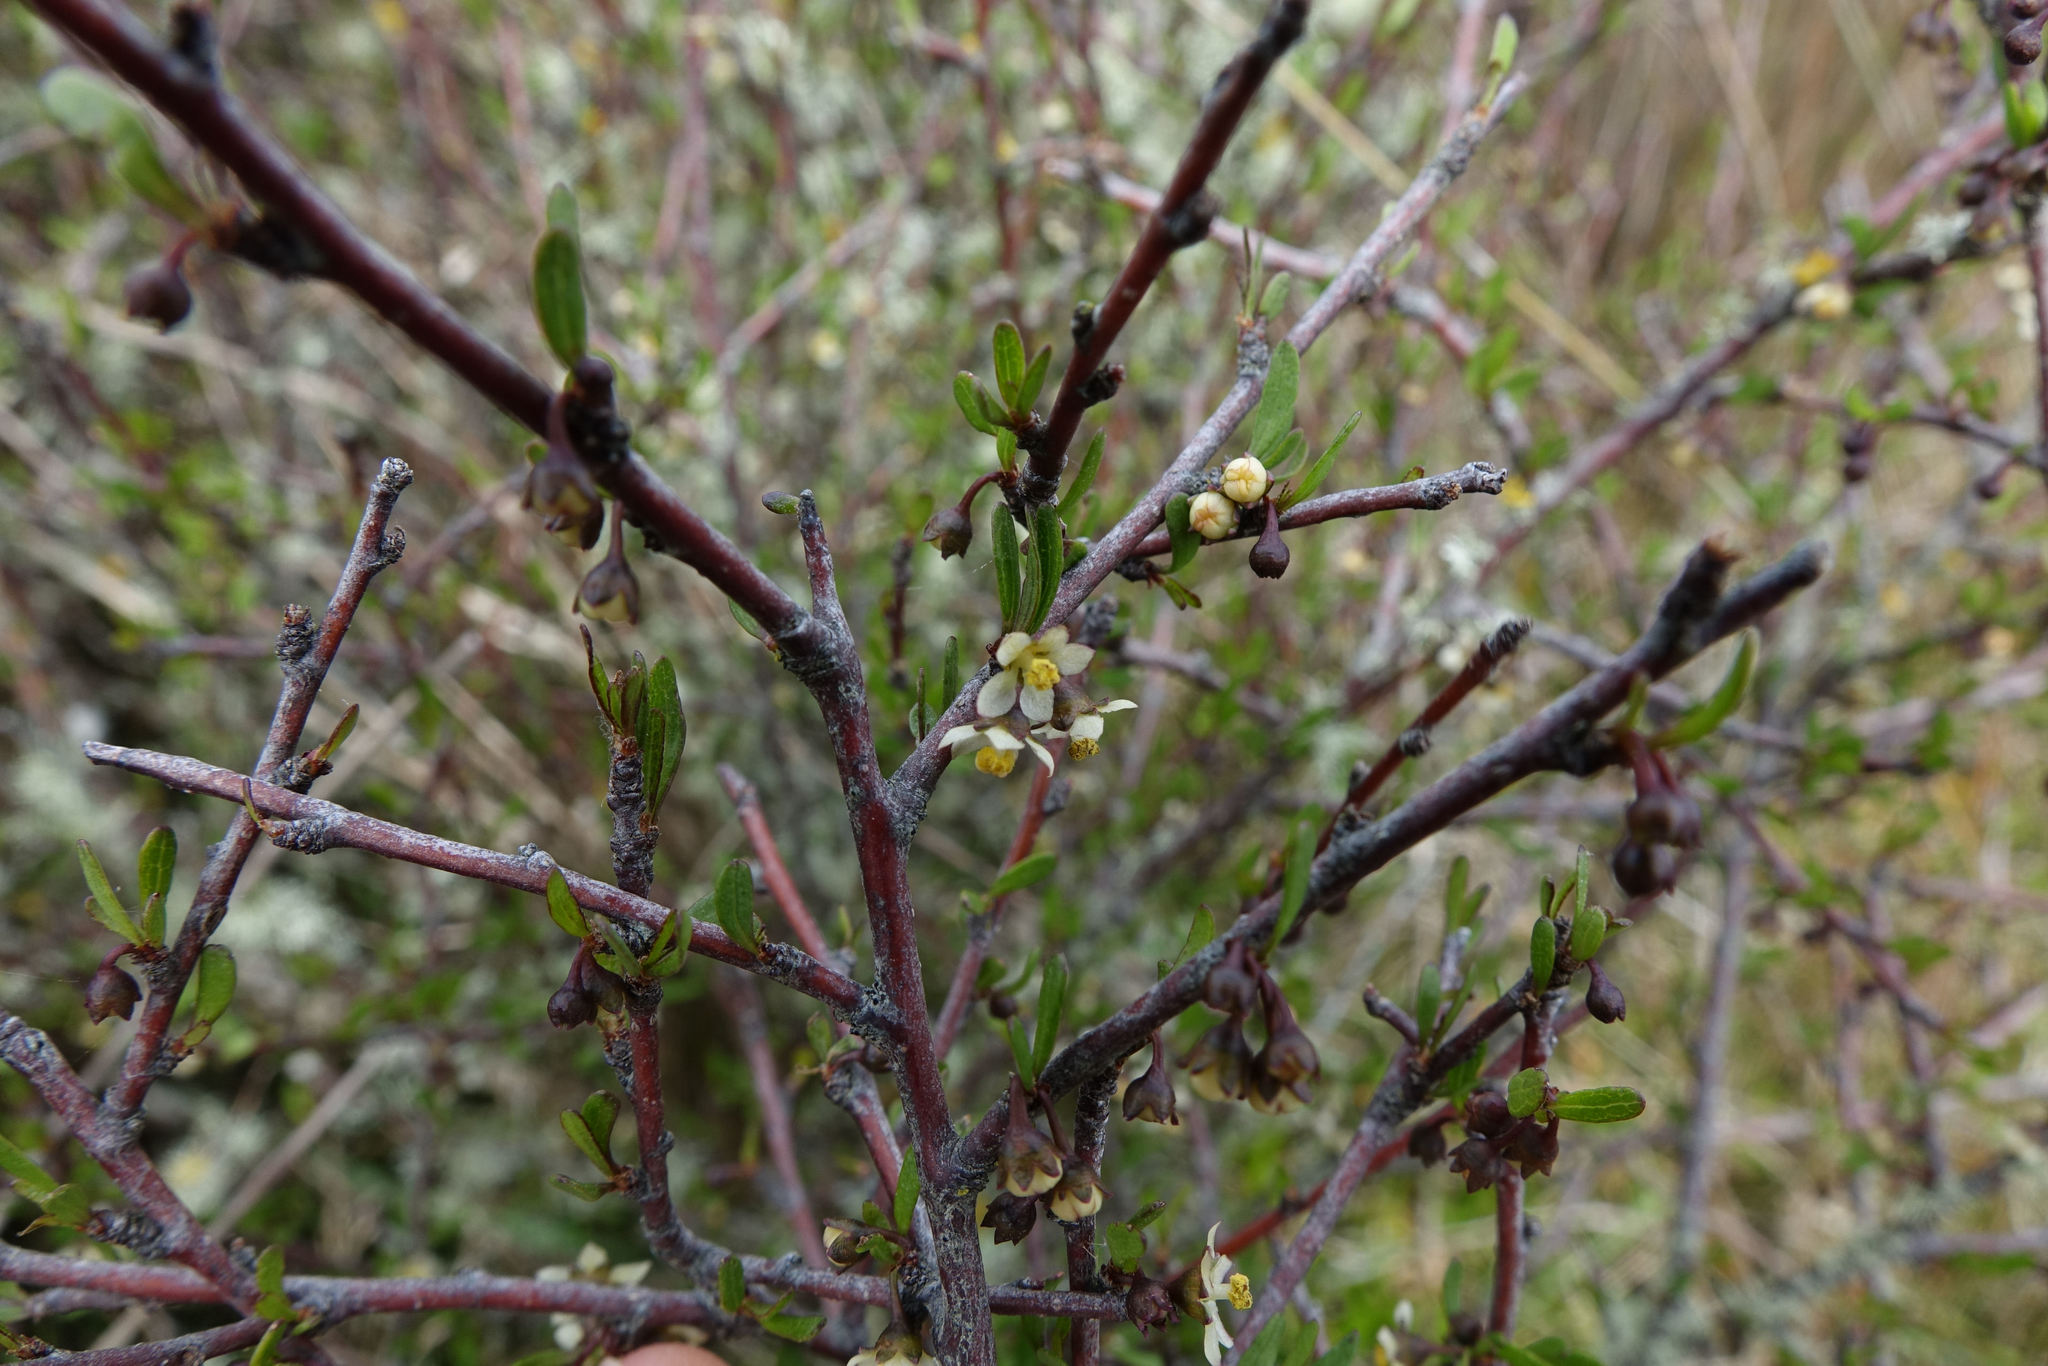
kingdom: Plantae
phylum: Tracheophyta
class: Magnoliopsida
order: Malvales
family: Malvaceae
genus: Plagianthus
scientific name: Plagianthus divaricatus
